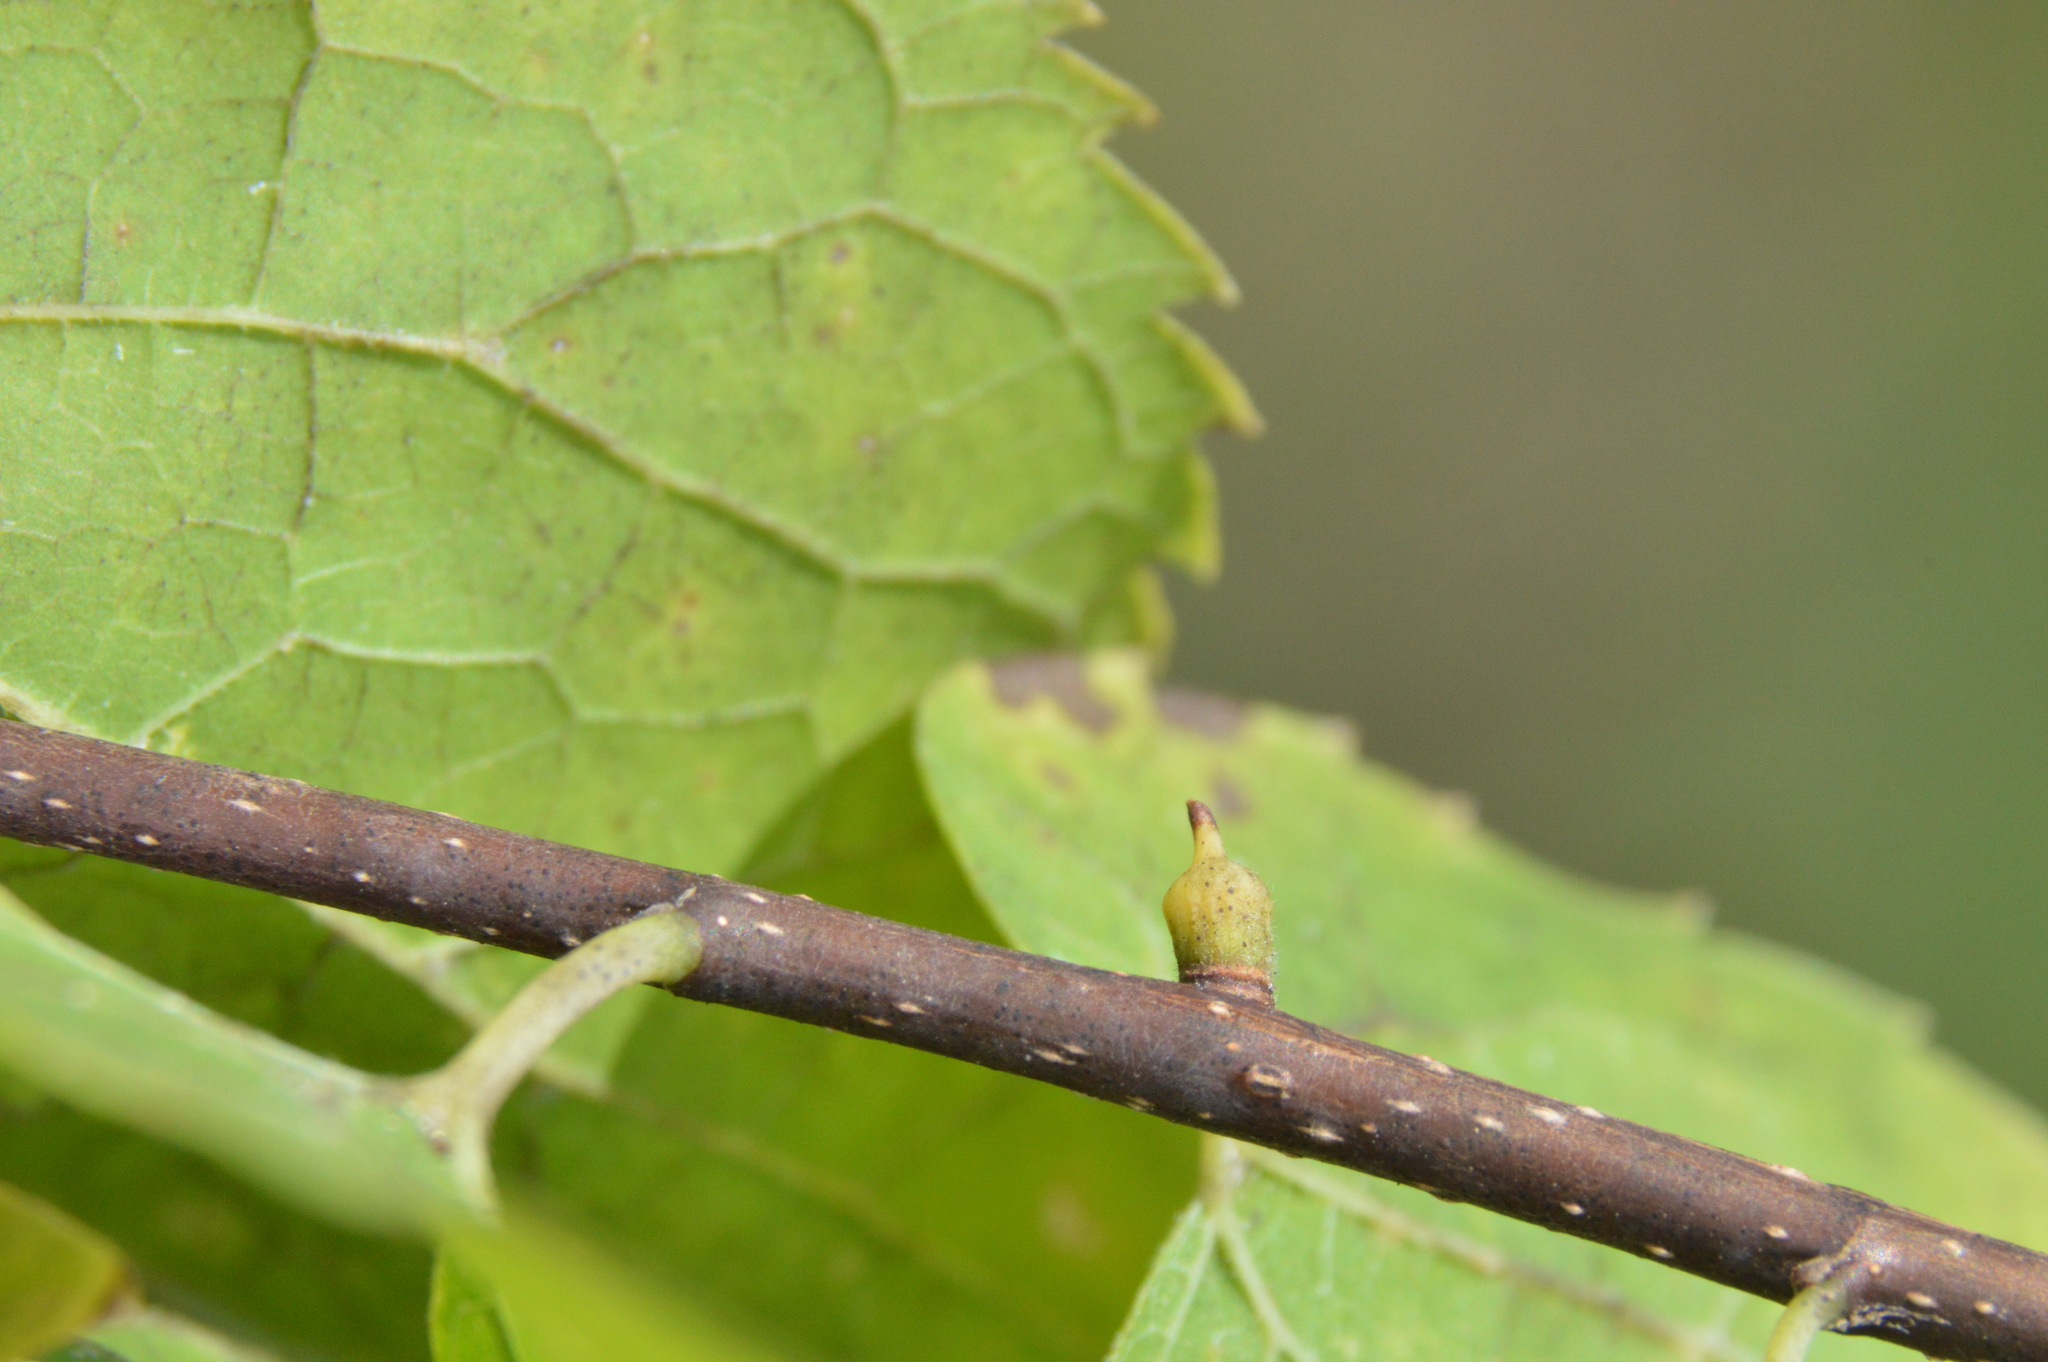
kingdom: Animalia
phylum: Arthropoda
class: Insecta
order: Diptera
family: Cecidomyiidae
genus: Celticecis
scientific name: Celticecis ramicola
